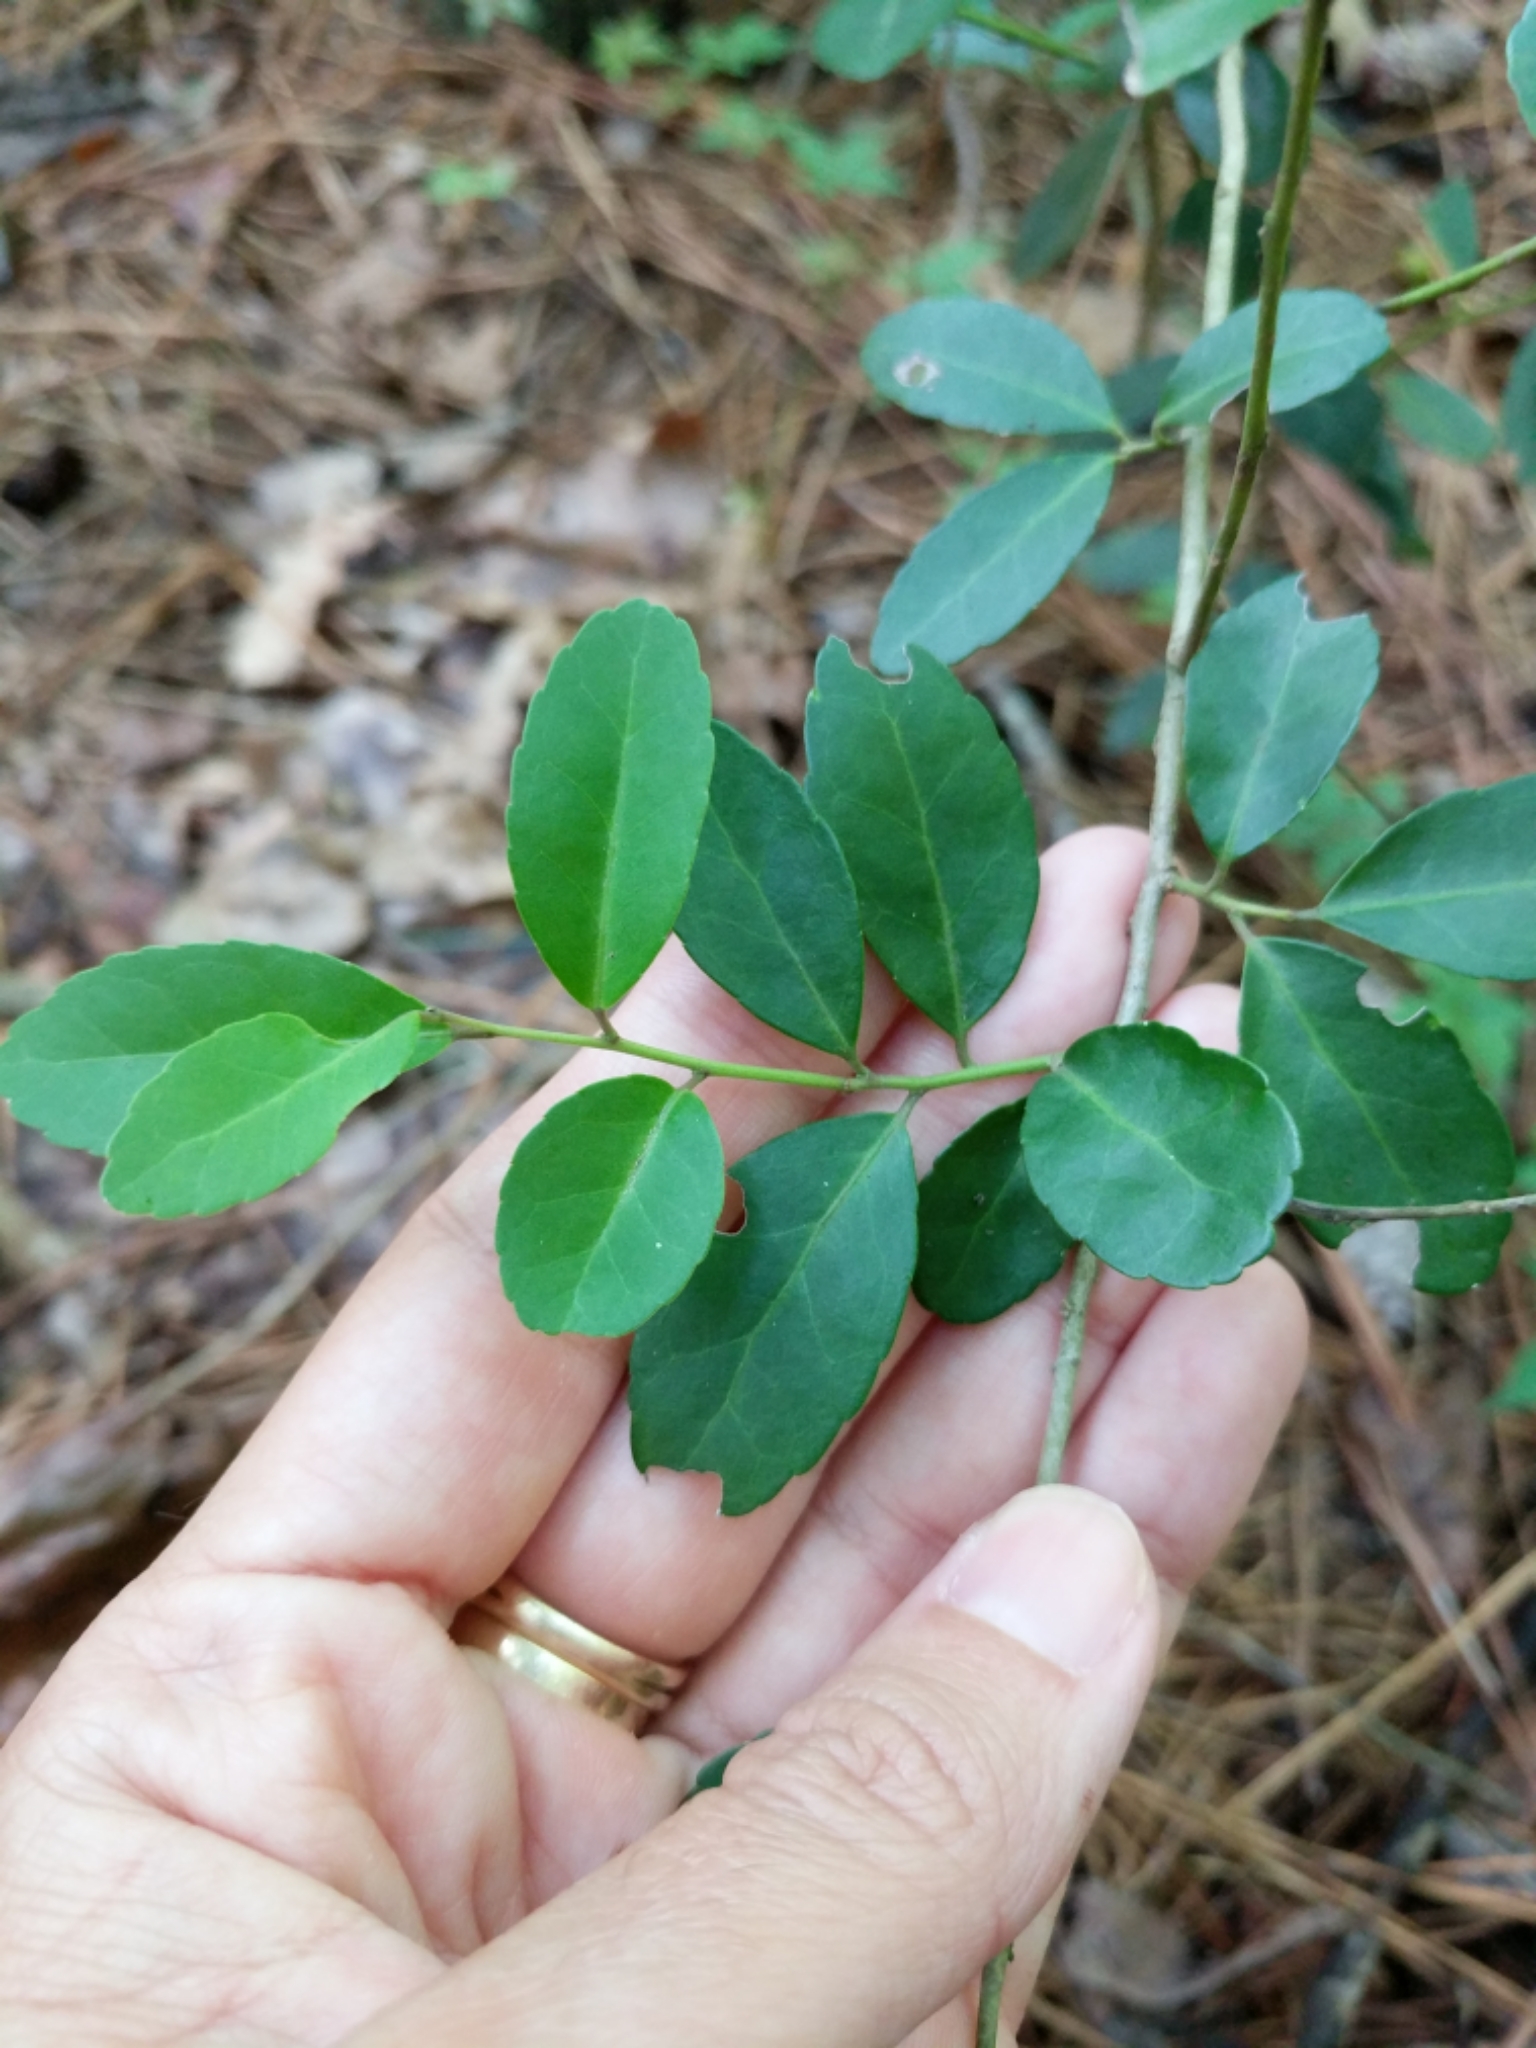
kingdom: Plantae
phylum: Tracheophyta
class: Magnoliopsida
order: Aquifoliales
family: Aquifoliaceae
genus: Ilex
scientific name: Ilex vomitoria
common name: Yaupon holly
